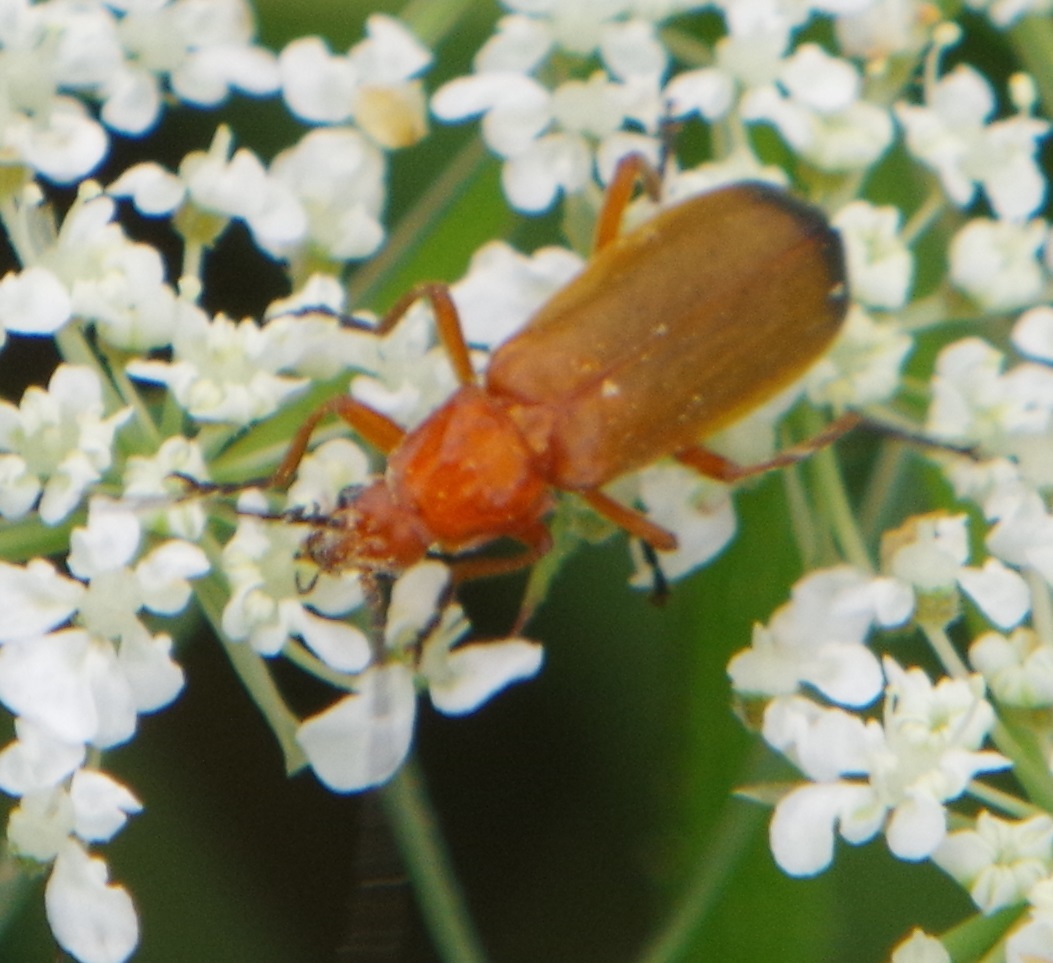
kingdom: Animalia
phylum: Arthropoda
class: Insecta
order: Coleoptera
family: Cantharidae
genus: Rhagonycha
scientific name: Rhagonycha fulva
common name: Common red soldier beetle
